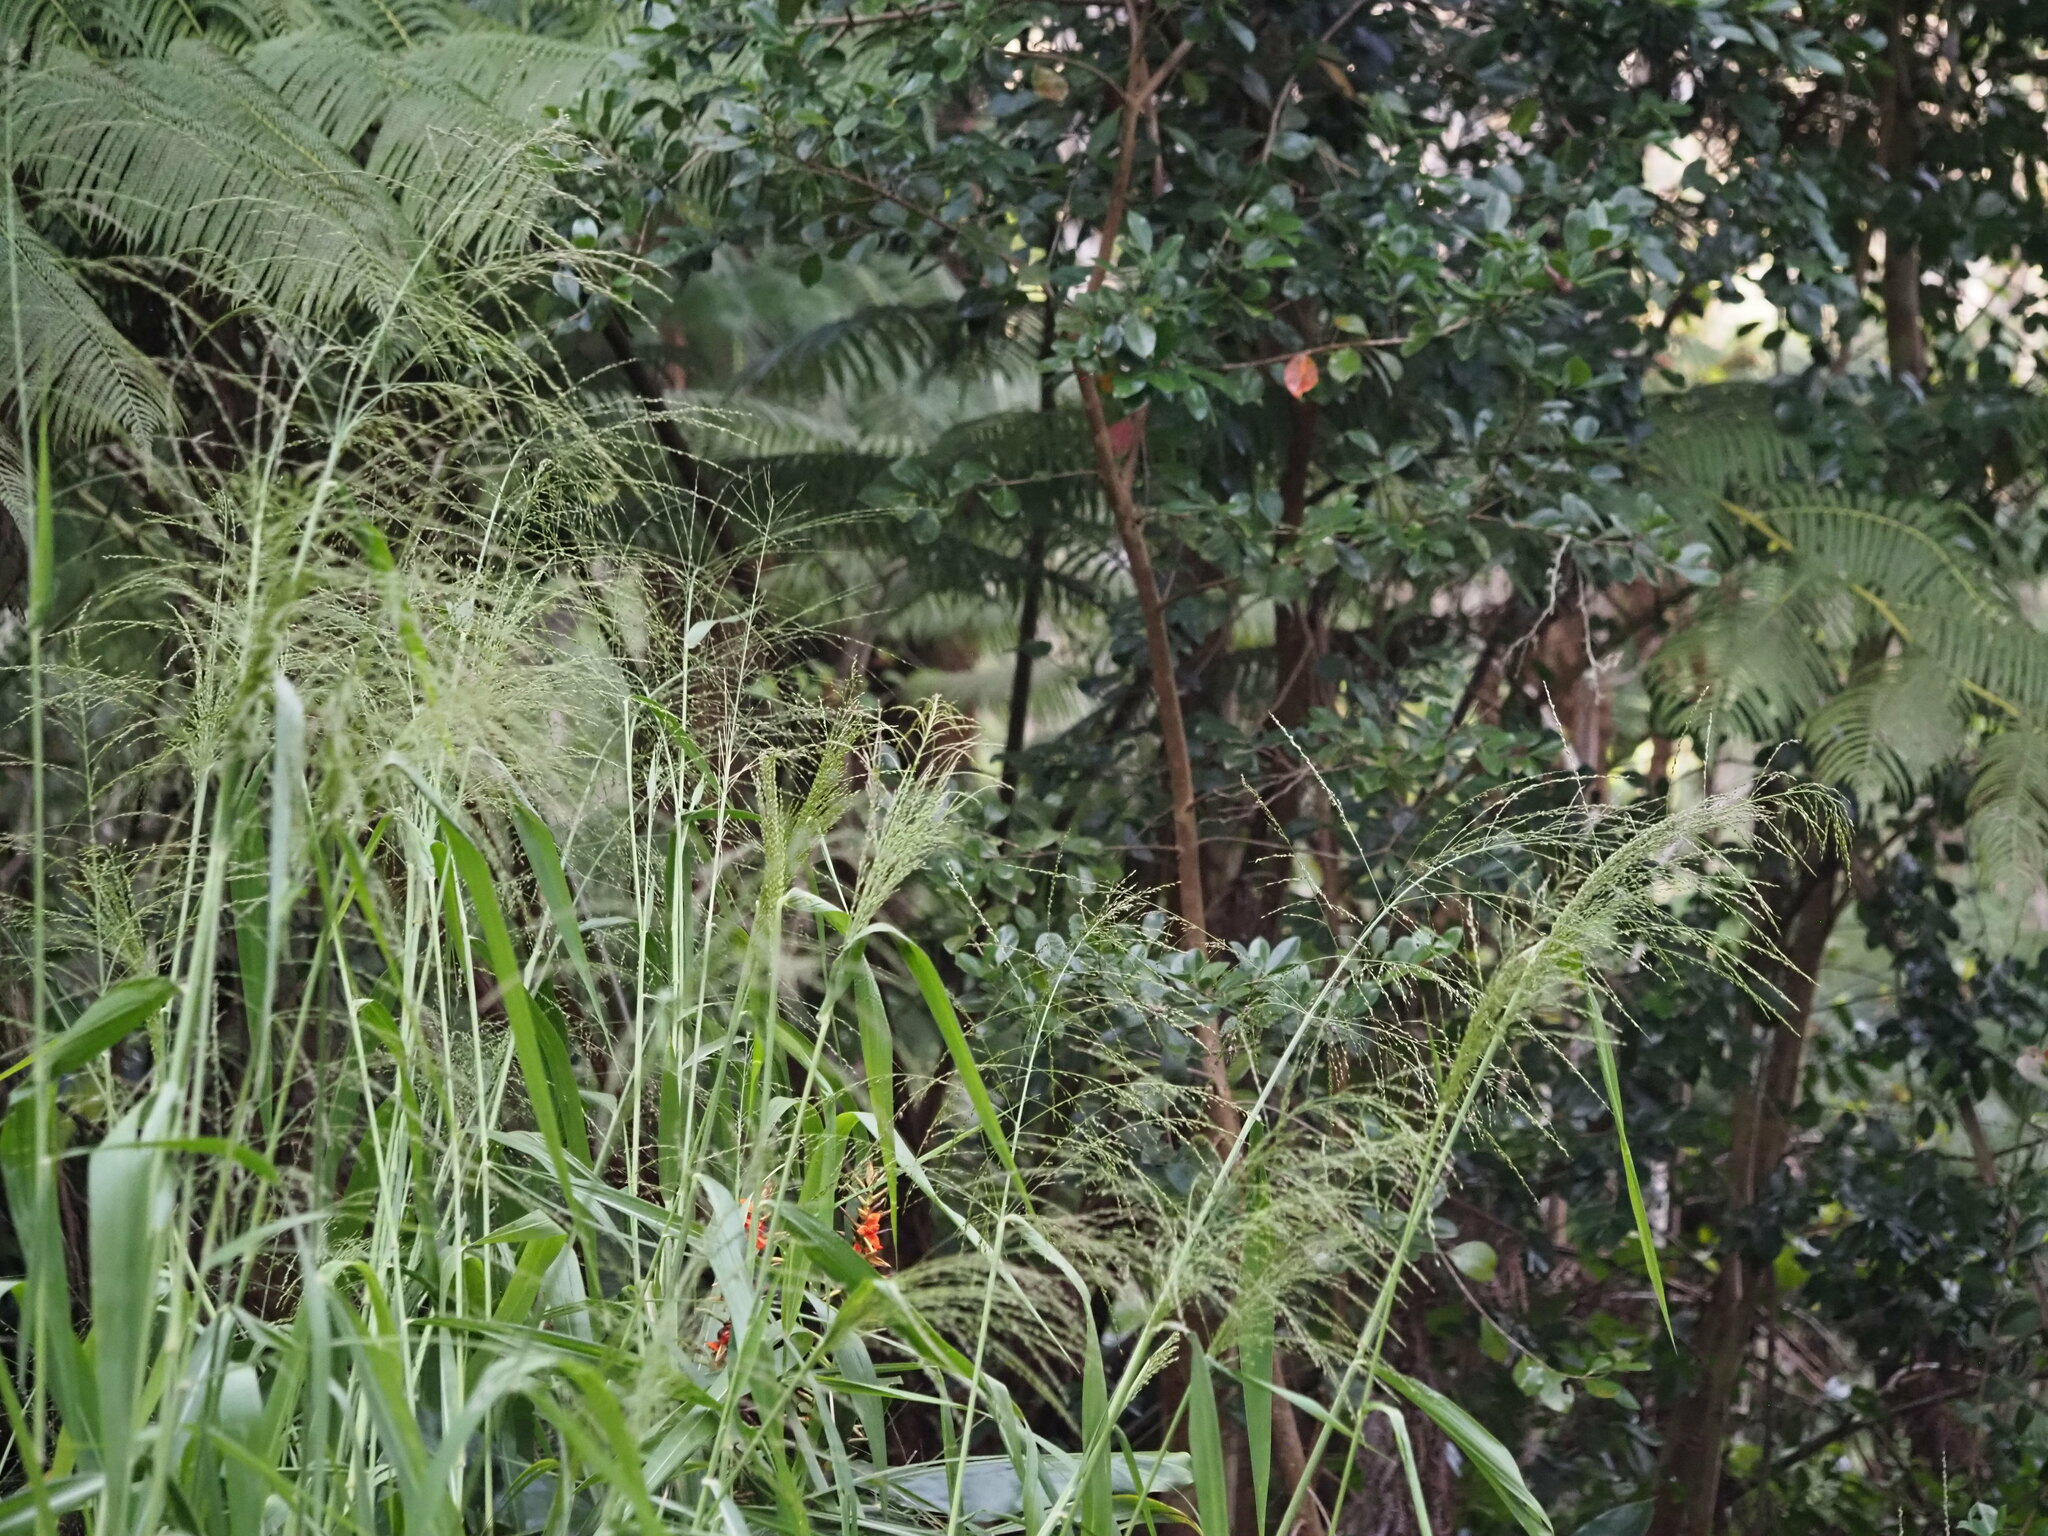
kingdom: Plantae
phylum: Tracheophyta
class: Liliopsida
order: Poales
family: Poaceae
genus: Megathyrsus
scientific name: Megathyrsus maximus
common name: Guineagrass
